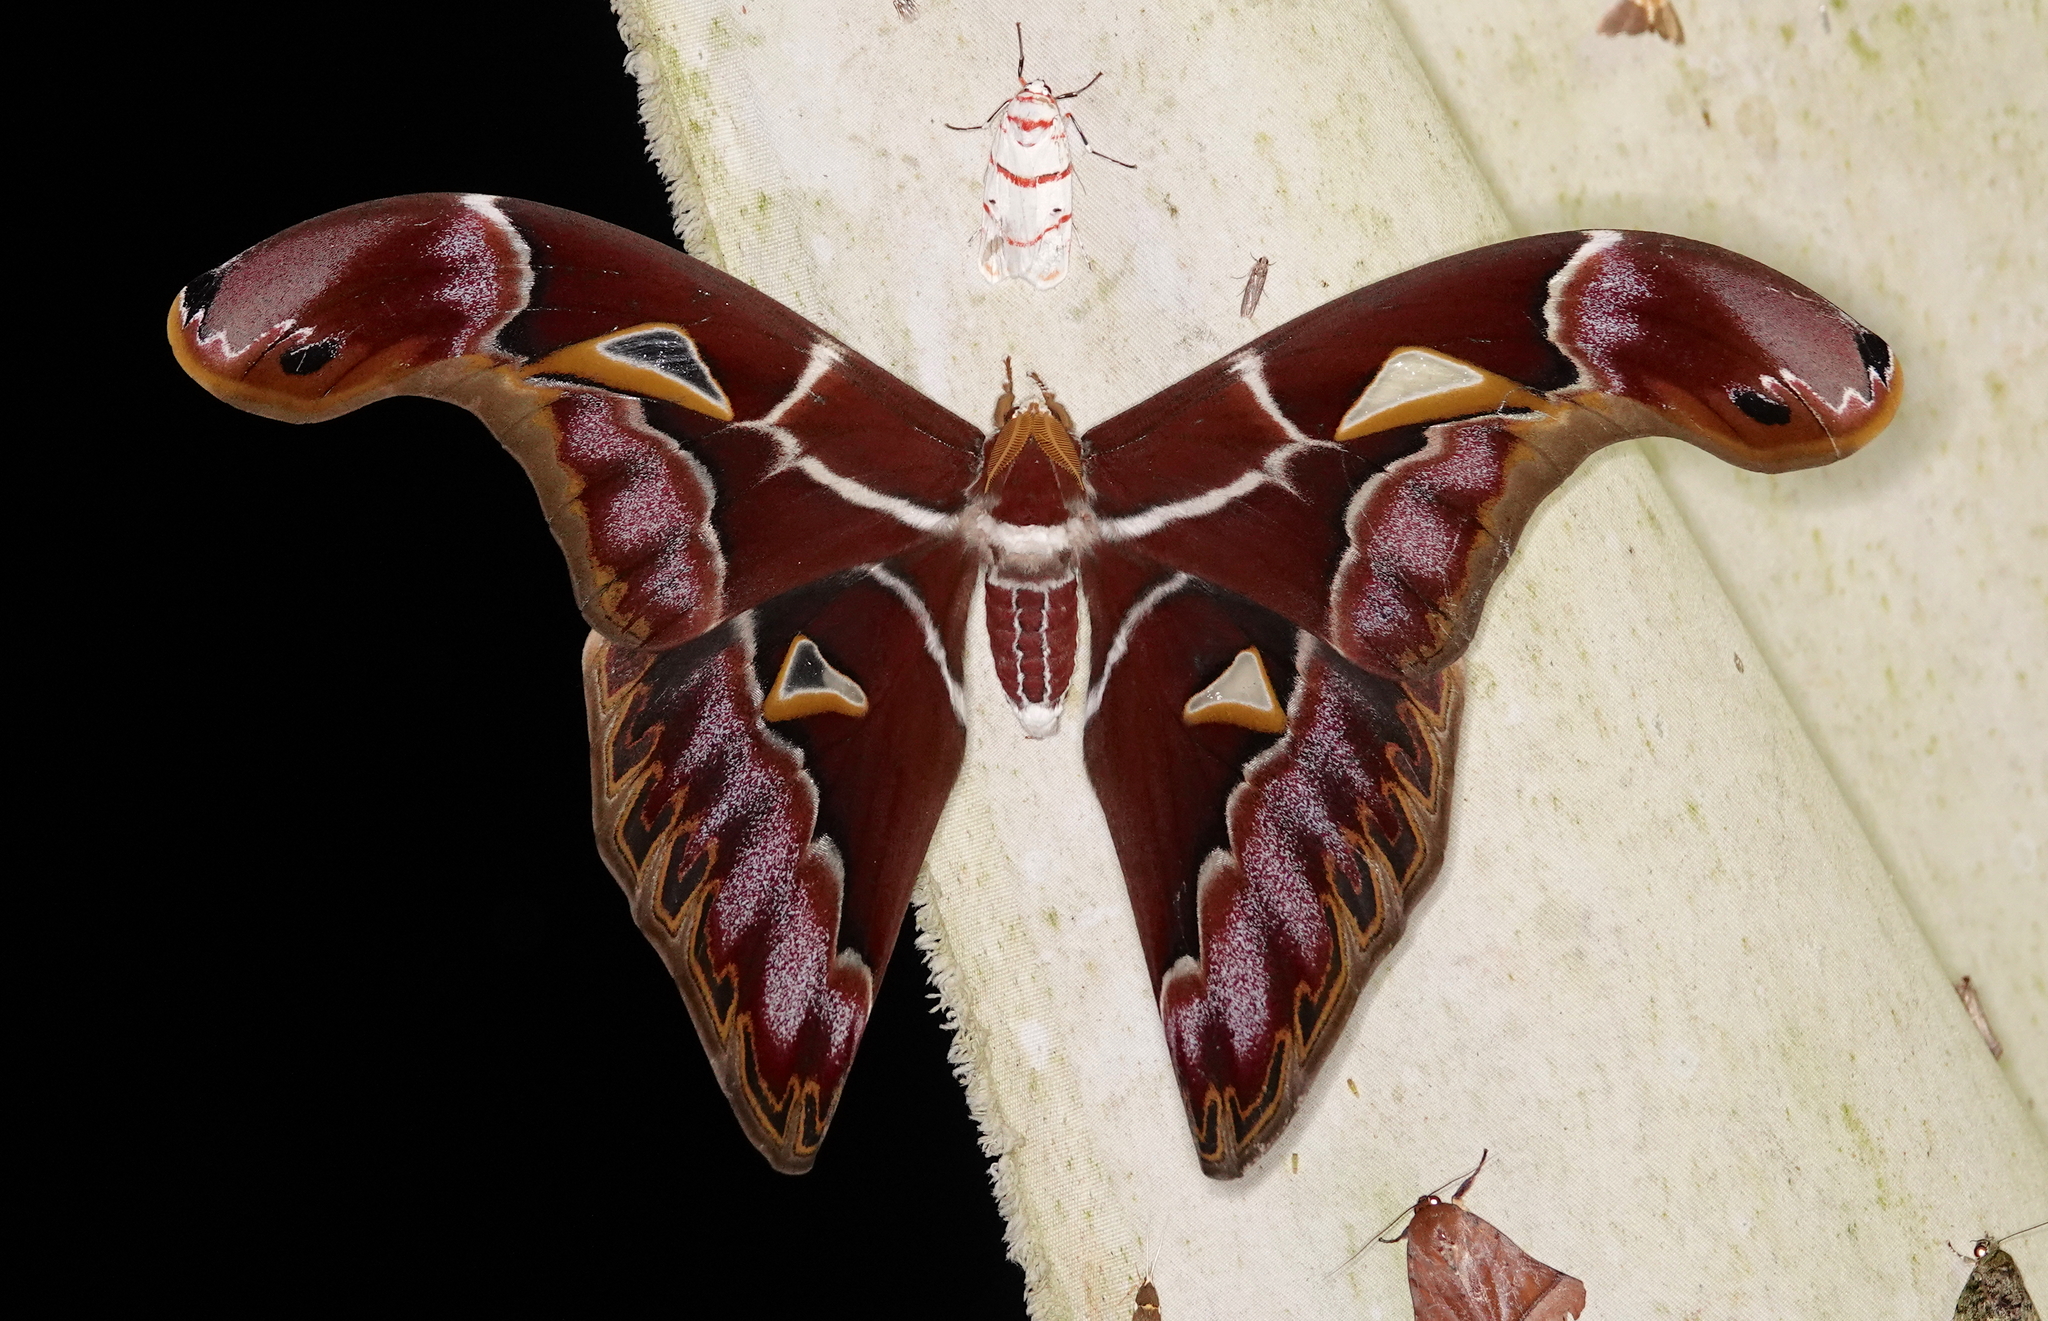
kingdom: Animalia
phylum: Arthropoda
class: Insecta
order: Lepidoptera
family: Saturniidae
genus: Archaeoattacus
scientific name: Archaeoattacus staudingeri
